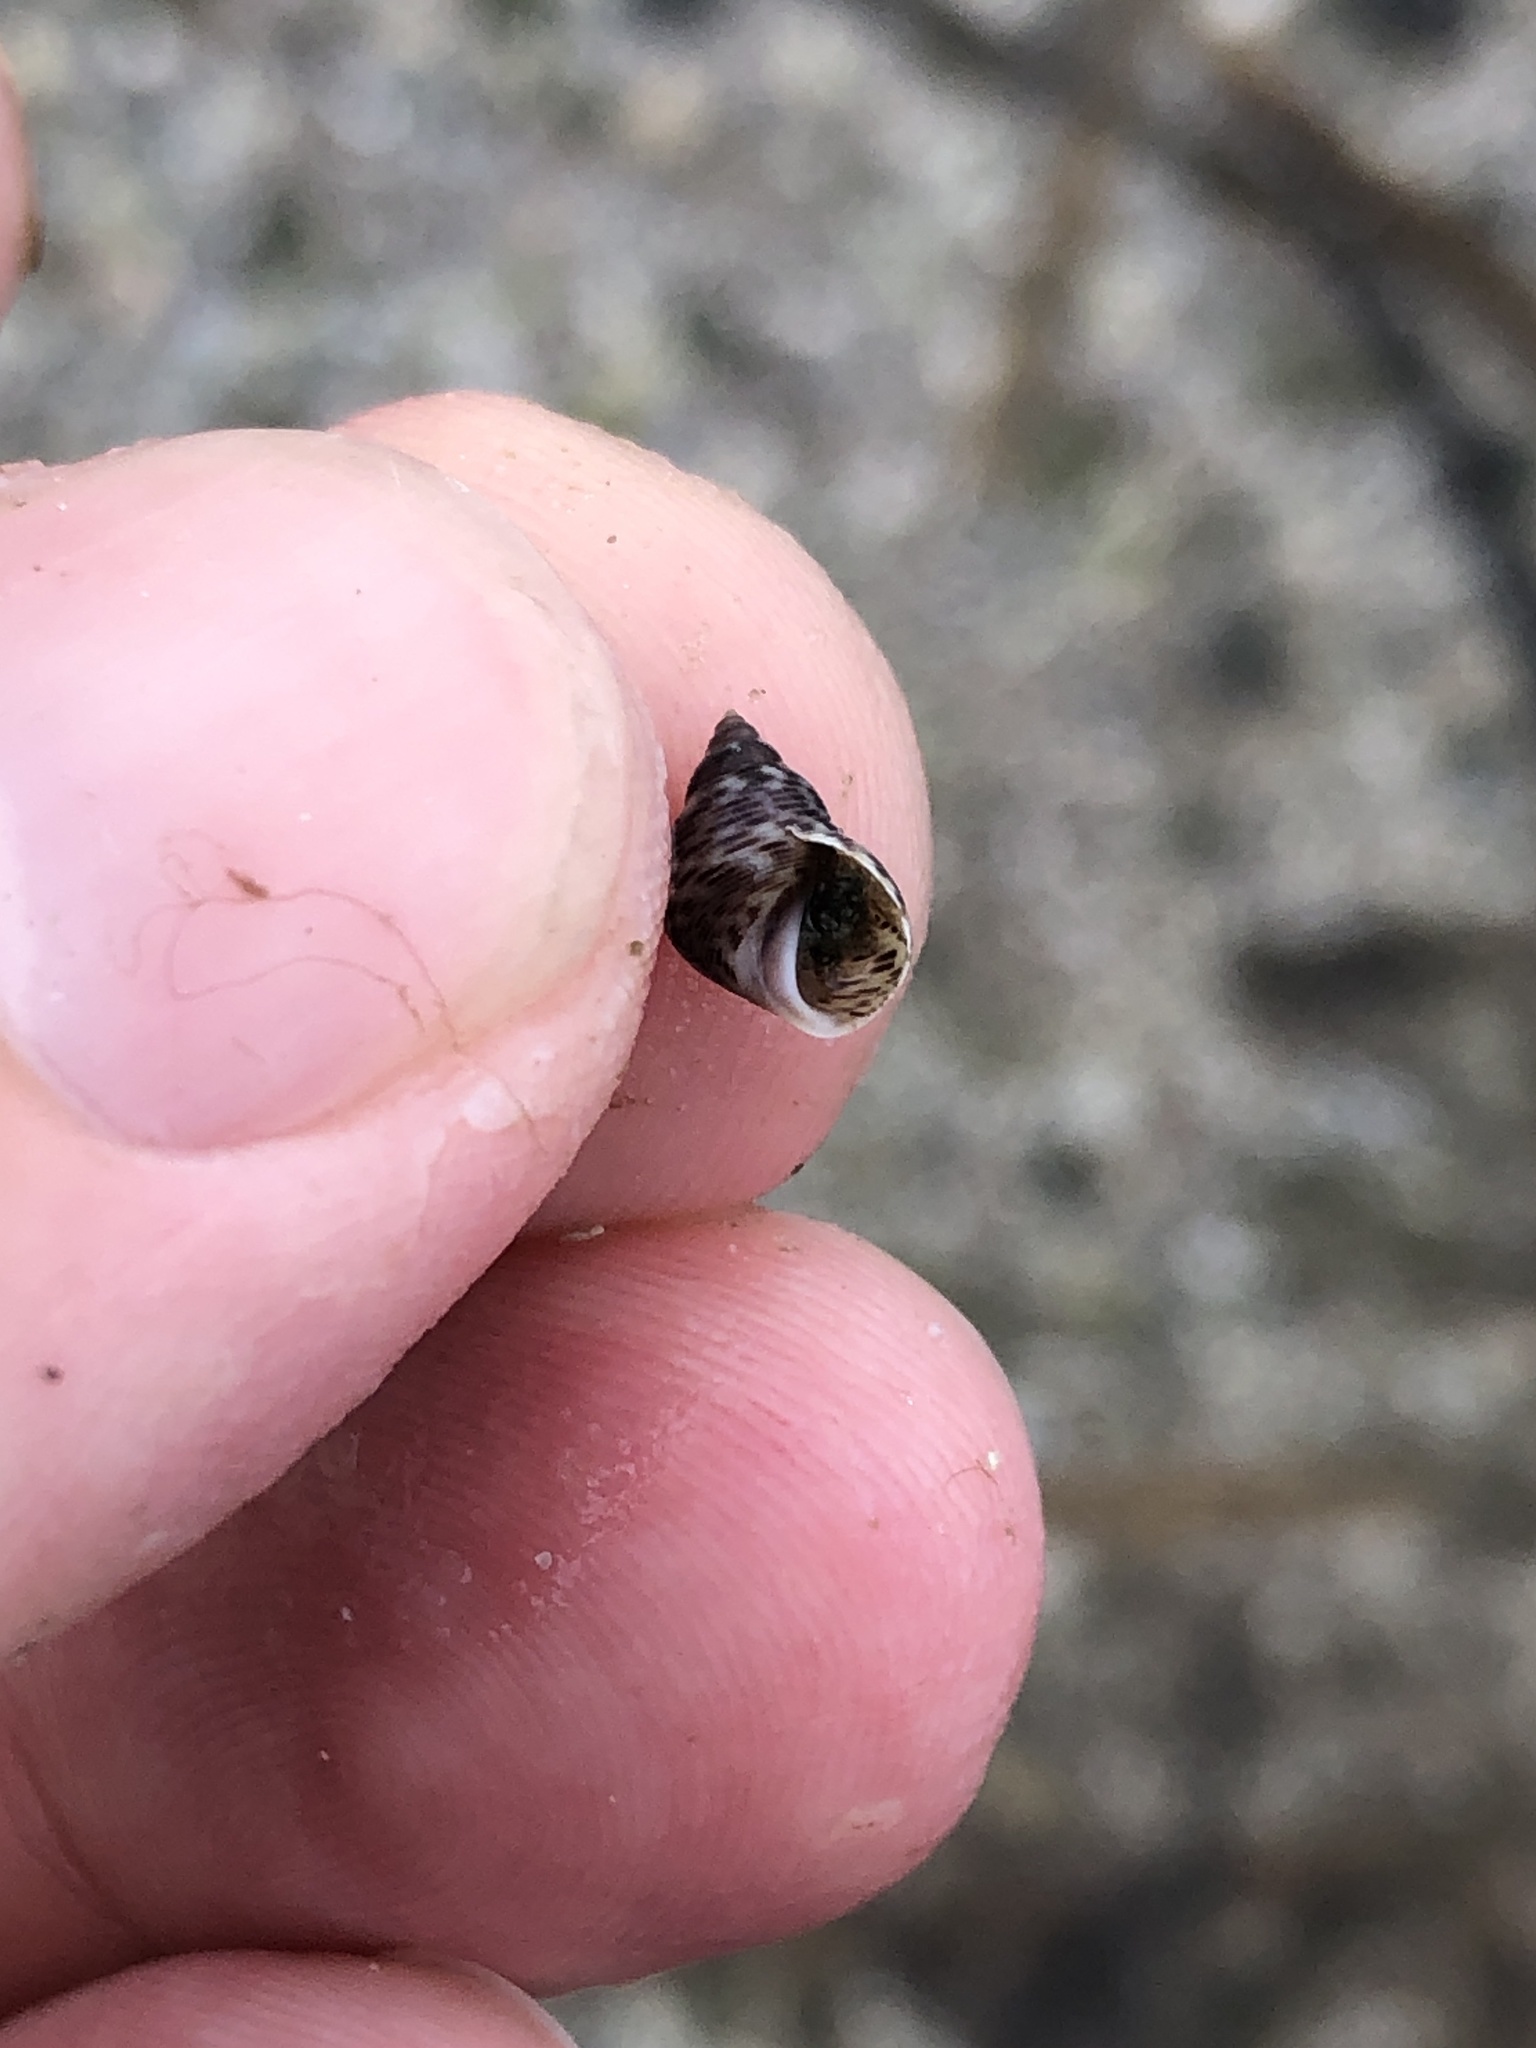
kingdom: Animalia
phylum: Mollusca
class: Gastropoda
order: Littorinimorpha
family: Littorinidae
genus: Littoraria
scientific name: Littoraria angulifera
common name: Mangrove periwinkle
